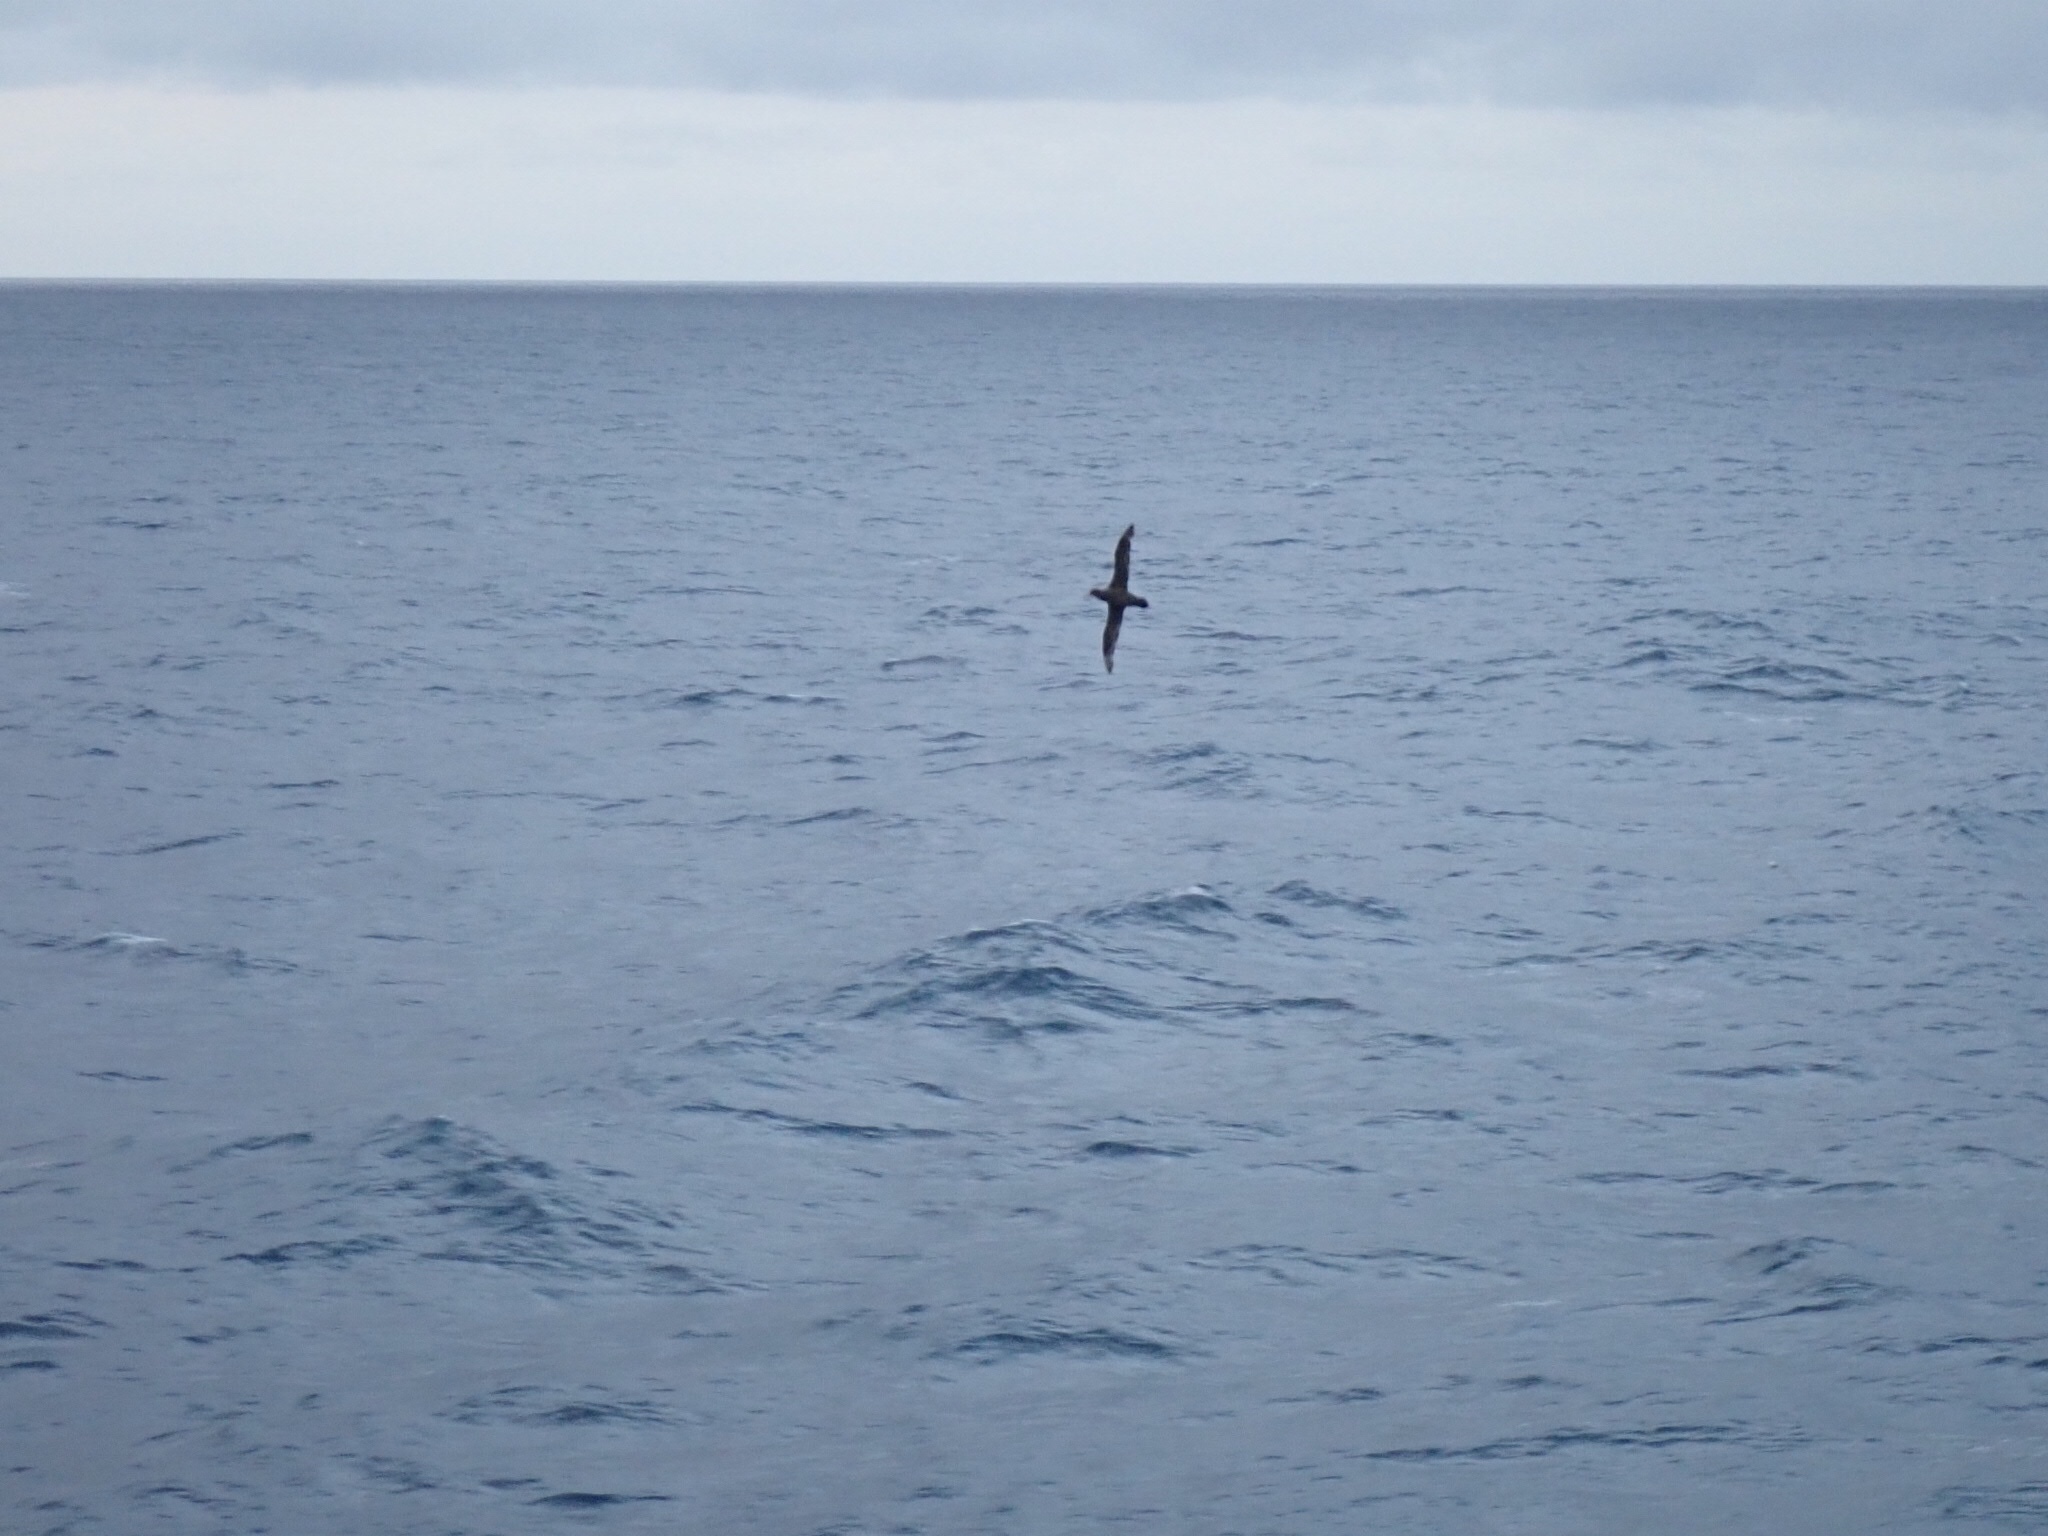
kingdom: Animalia
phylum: Chordata
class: Aves
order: Procellariiformes
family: Procellariidae
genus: Macronectes
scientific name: Macronectes giganteus
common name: Southern giant petrel
